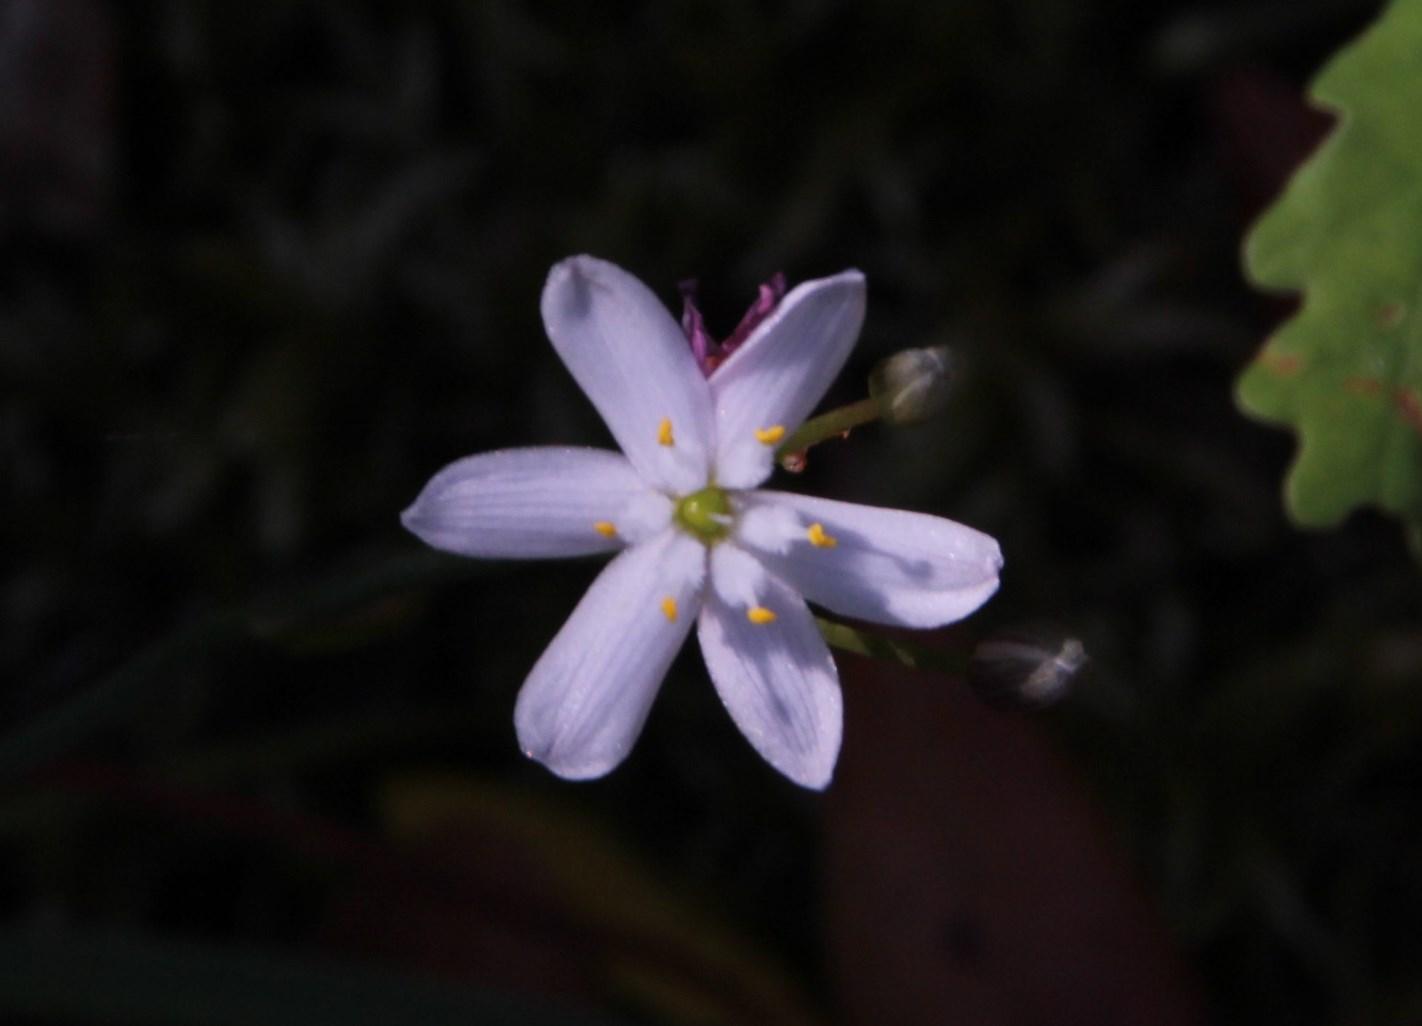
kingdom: Plantae
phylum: Tracheophyta
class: Liliopsida
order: Asparagales
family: Asphodelaceae
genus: Simethis
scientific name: Simethis mattiazzii
